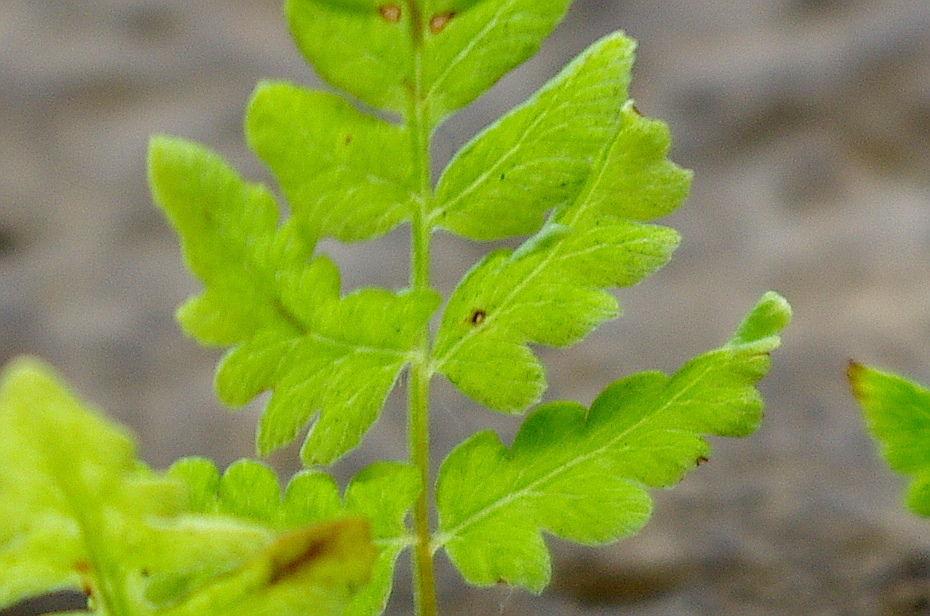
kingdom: Plantae
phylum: Tracheophyta
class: Polypodiopsida
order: Polypodiales
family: Athyriaceae
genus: Athyrium
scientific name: Athyrium filix-femina
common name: Lady fern
